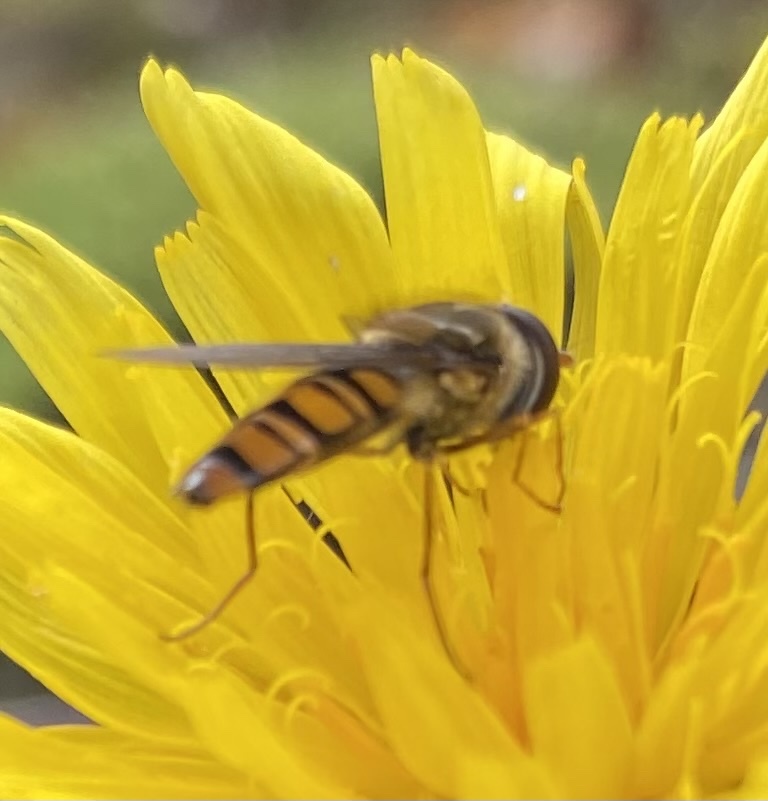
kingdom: Animalia
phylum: Arthropoda
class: Insecta
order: Diptera
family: Syrphidae
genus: Episyrphus
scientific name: Episyrphus balteatus
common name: Marmalade hoverfly
